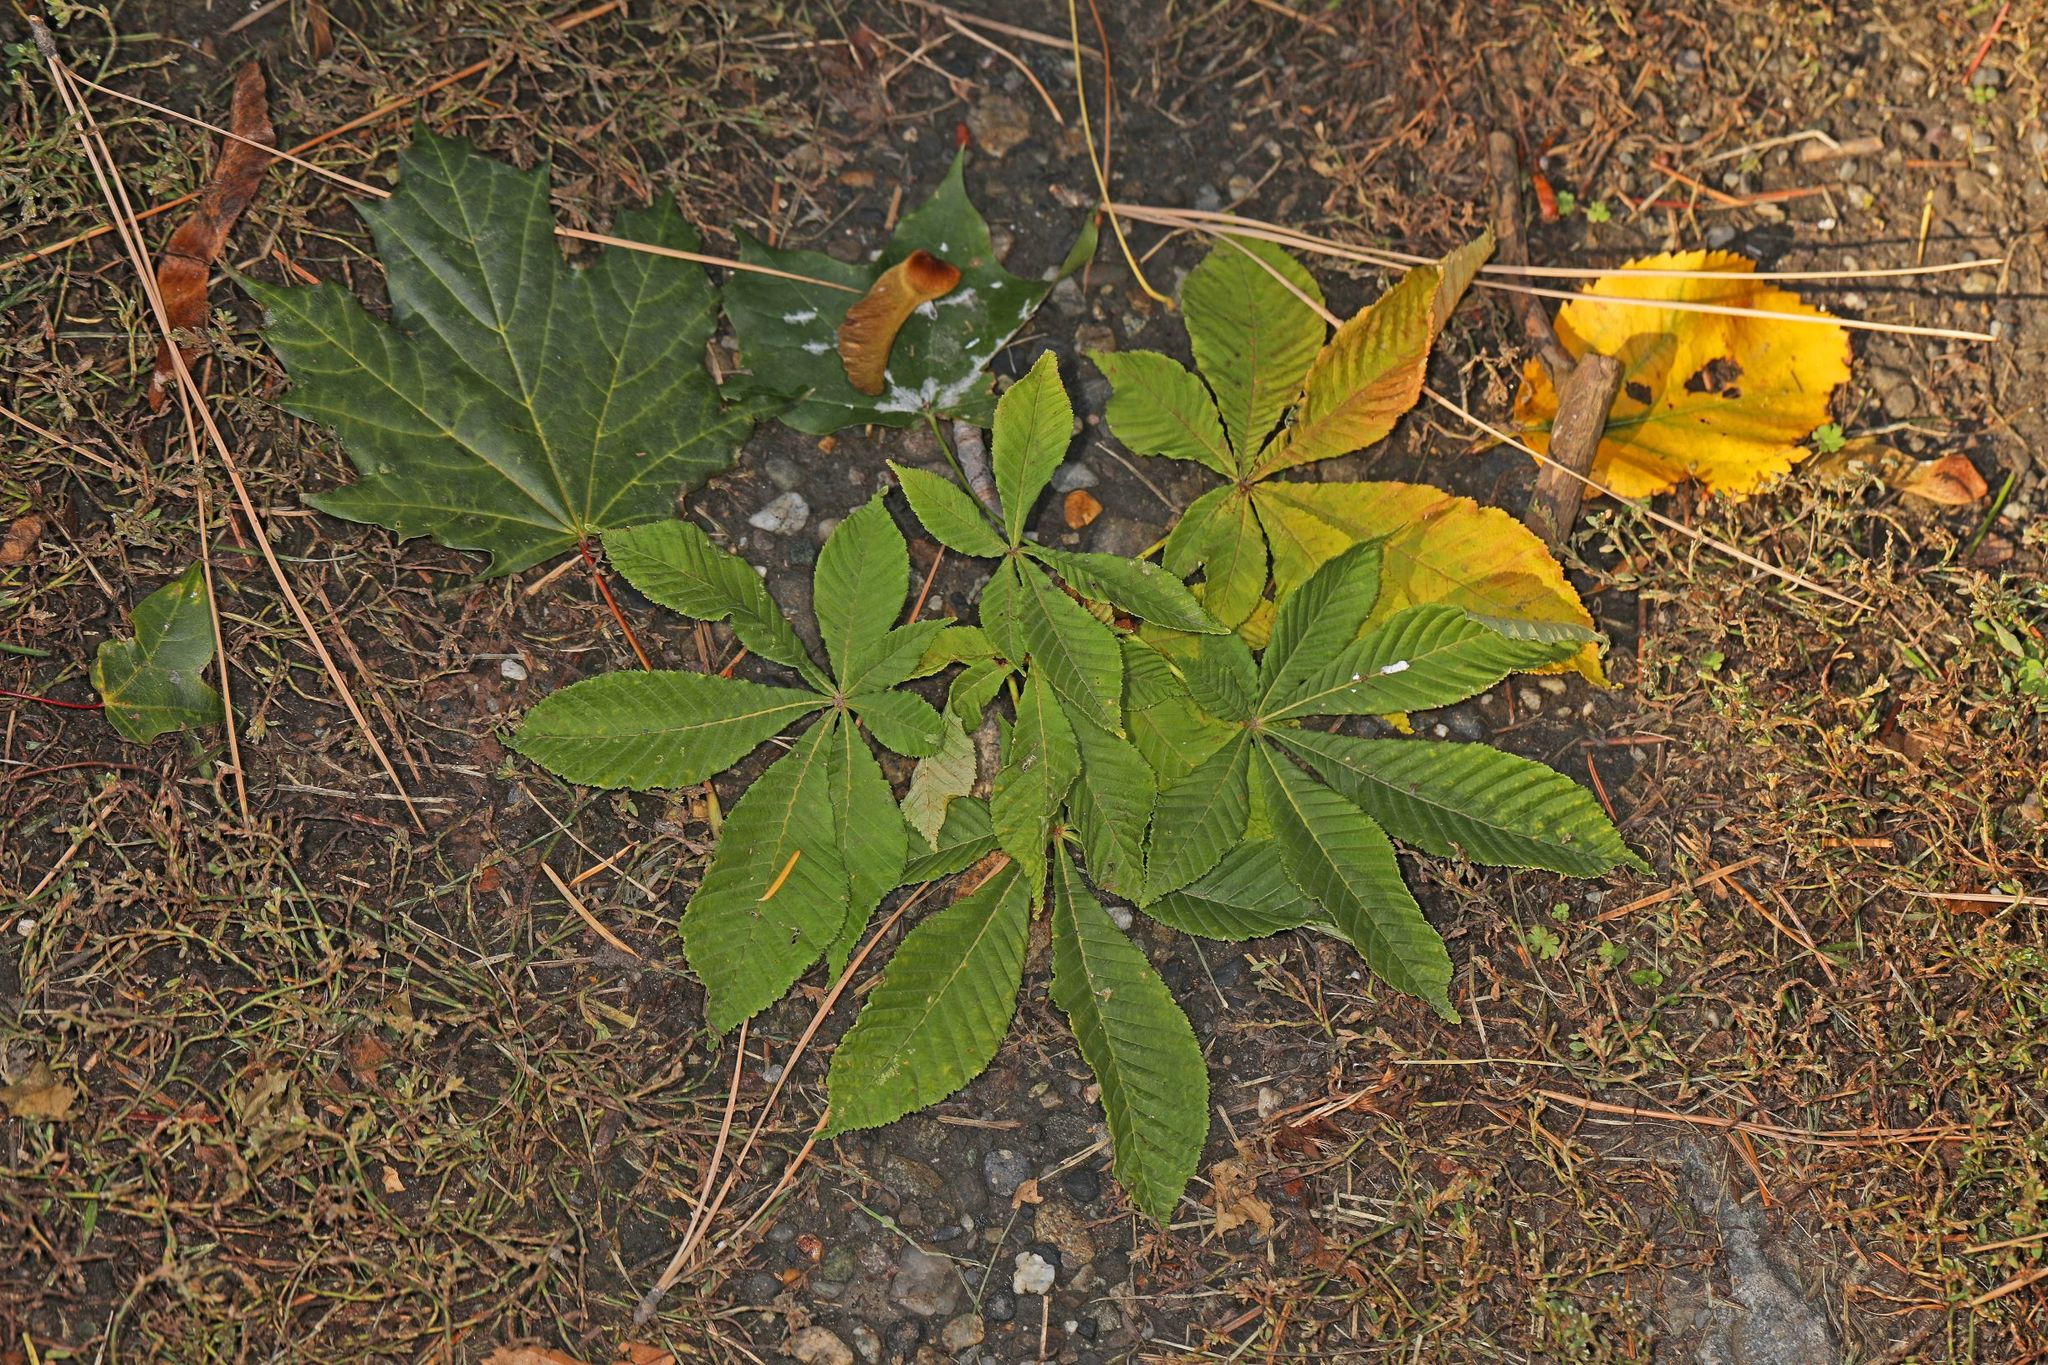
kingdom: Plantae
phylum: Tracheophyta
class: Magnoliopsida
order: Sapindales
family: Sapindaceae
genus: Aesculus
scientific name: Aesculus hippocastanum
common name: Horse-chestnut
